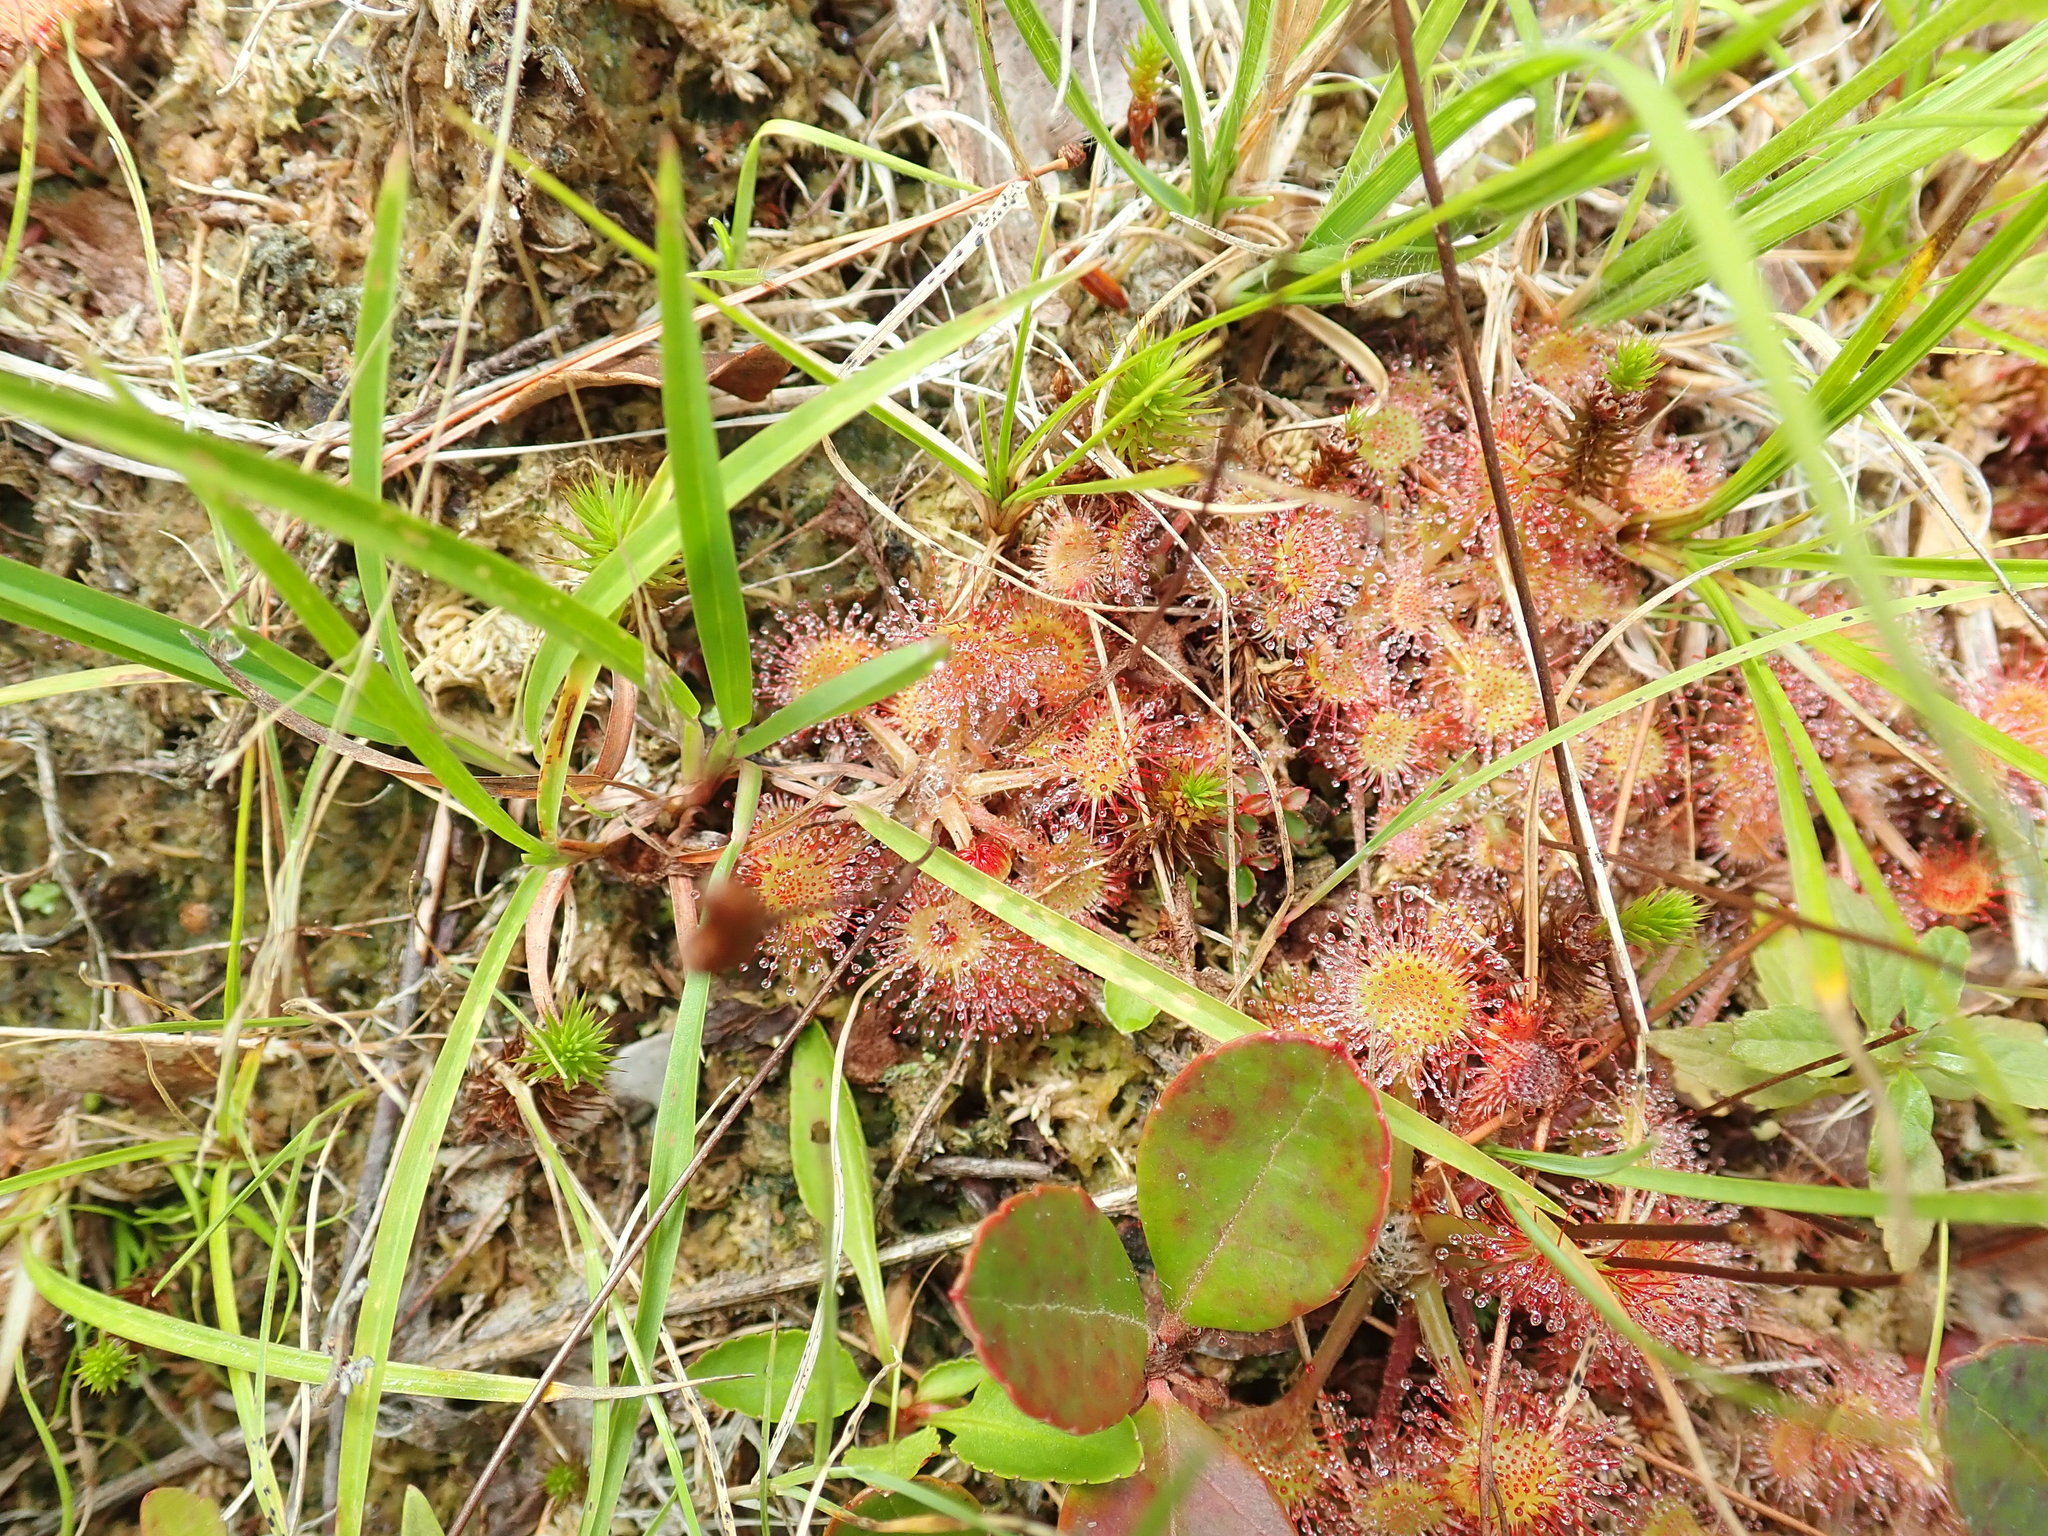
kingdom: Plantae
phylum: Tracheophyta
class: Magnoliopsida
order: Caryophyllales
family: Droseraceae
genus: Drosera
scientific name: Drosera rotundifolia
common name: Round-leaved sundew
